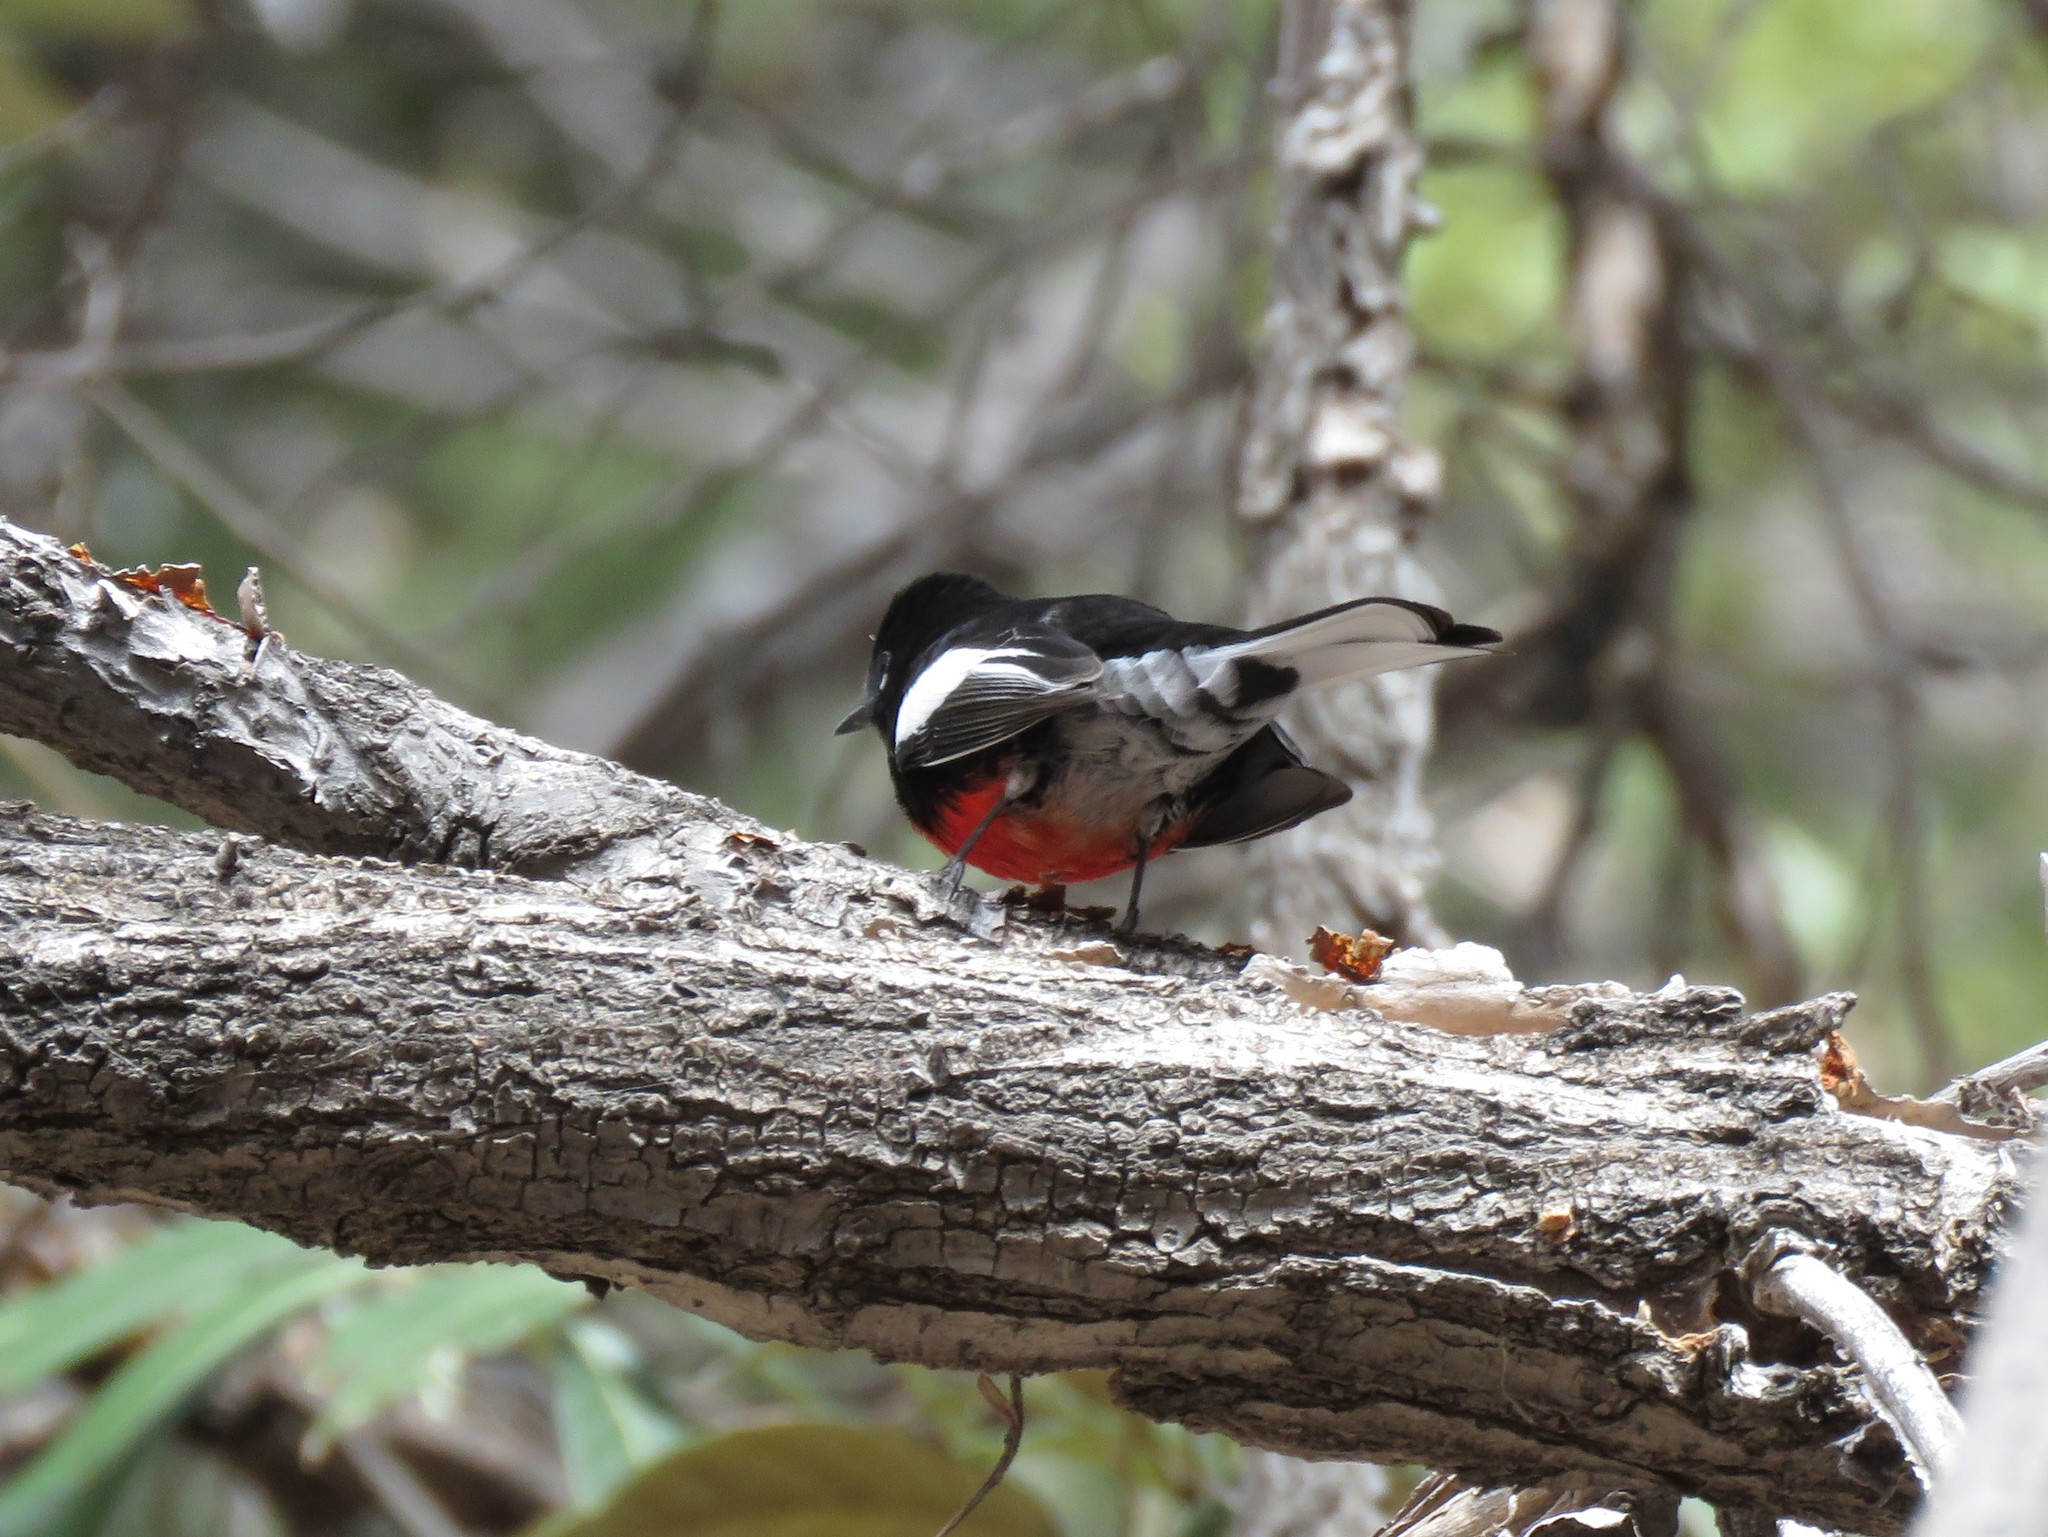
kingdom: Animalia
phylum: Chordata
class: Aves
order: Passeriformes
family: Parulidae
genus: Myioborus
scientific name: Myioborus pictus
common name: Painted whitestart
